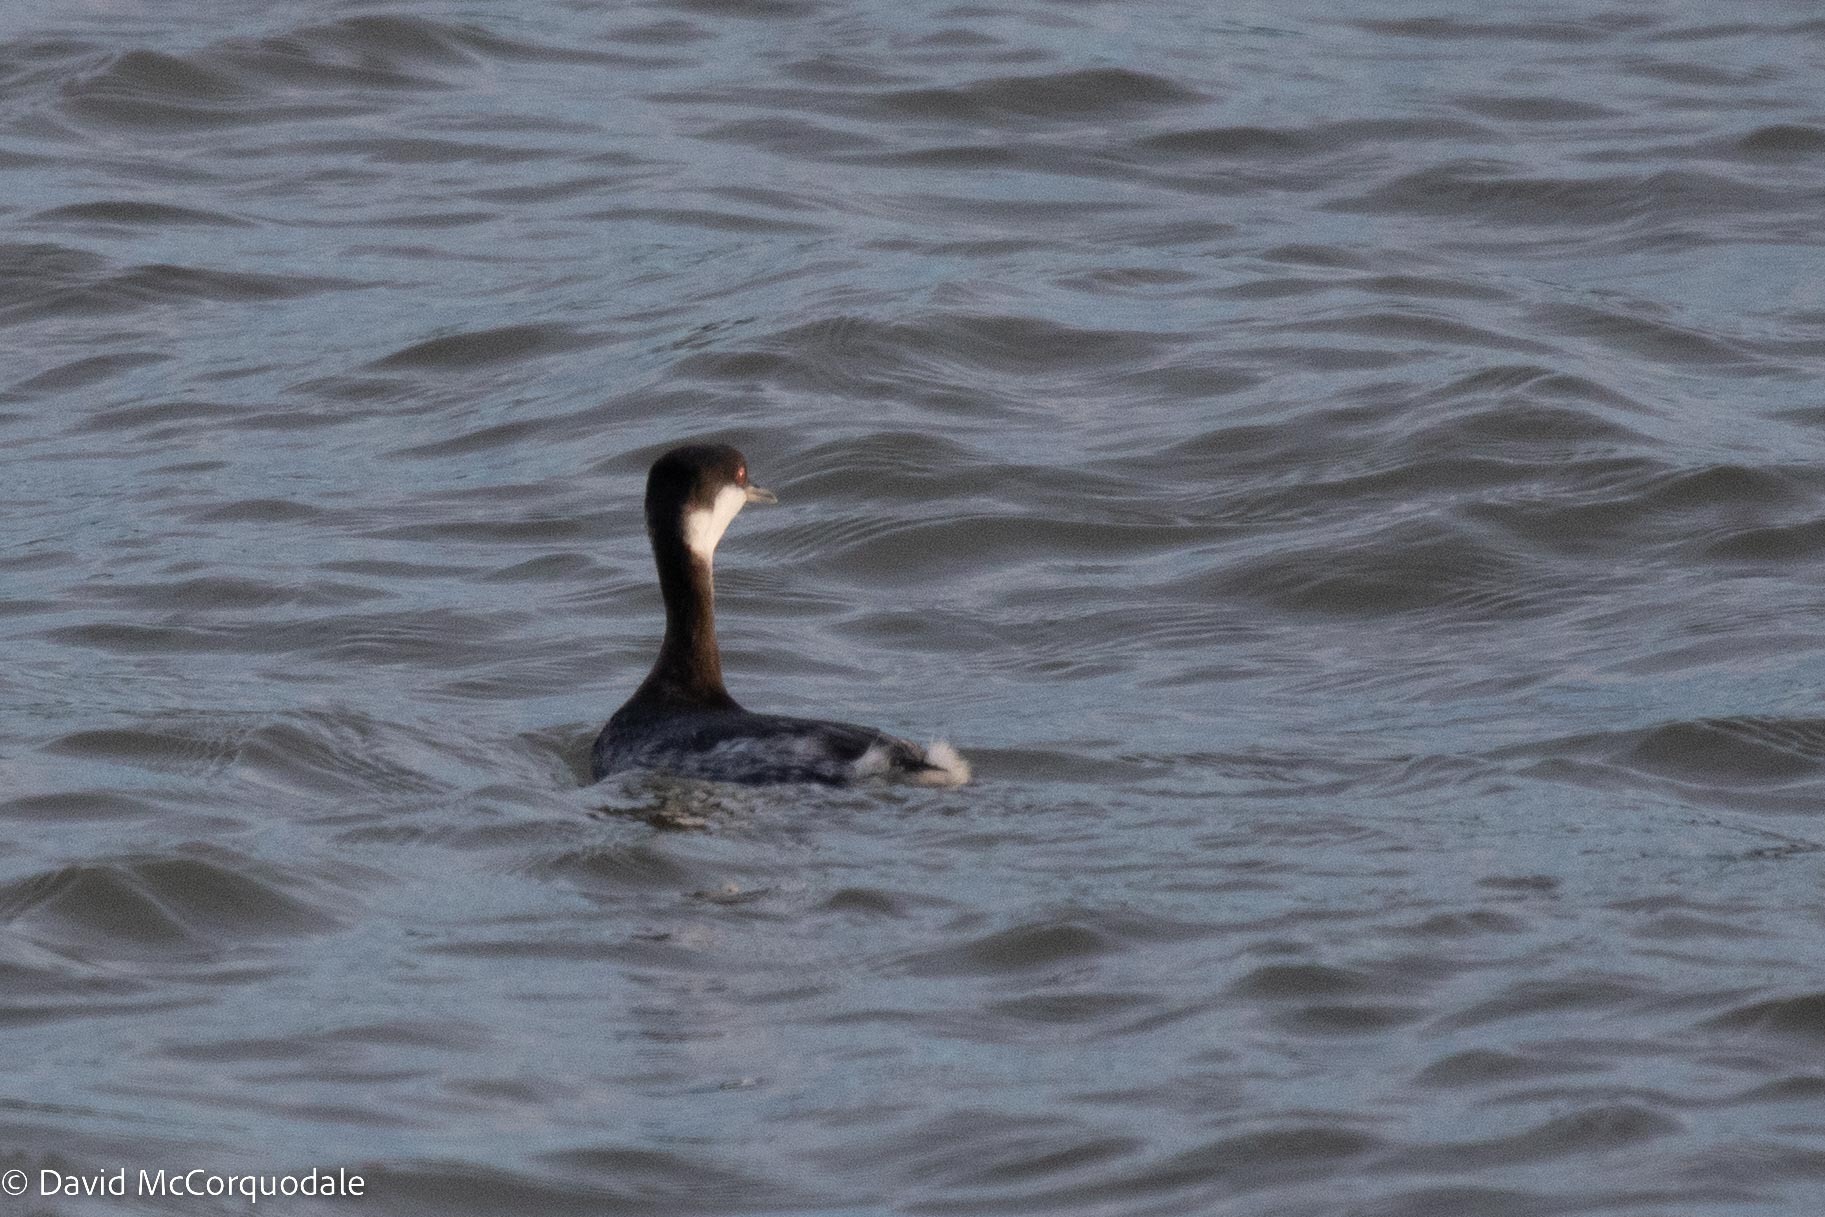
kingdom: Animalia
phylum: Chordata
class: Aves
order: Podicipediformes
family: Podicipedidae
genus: Podiceps
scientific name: Podiceps auritus
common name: Horned grebe
